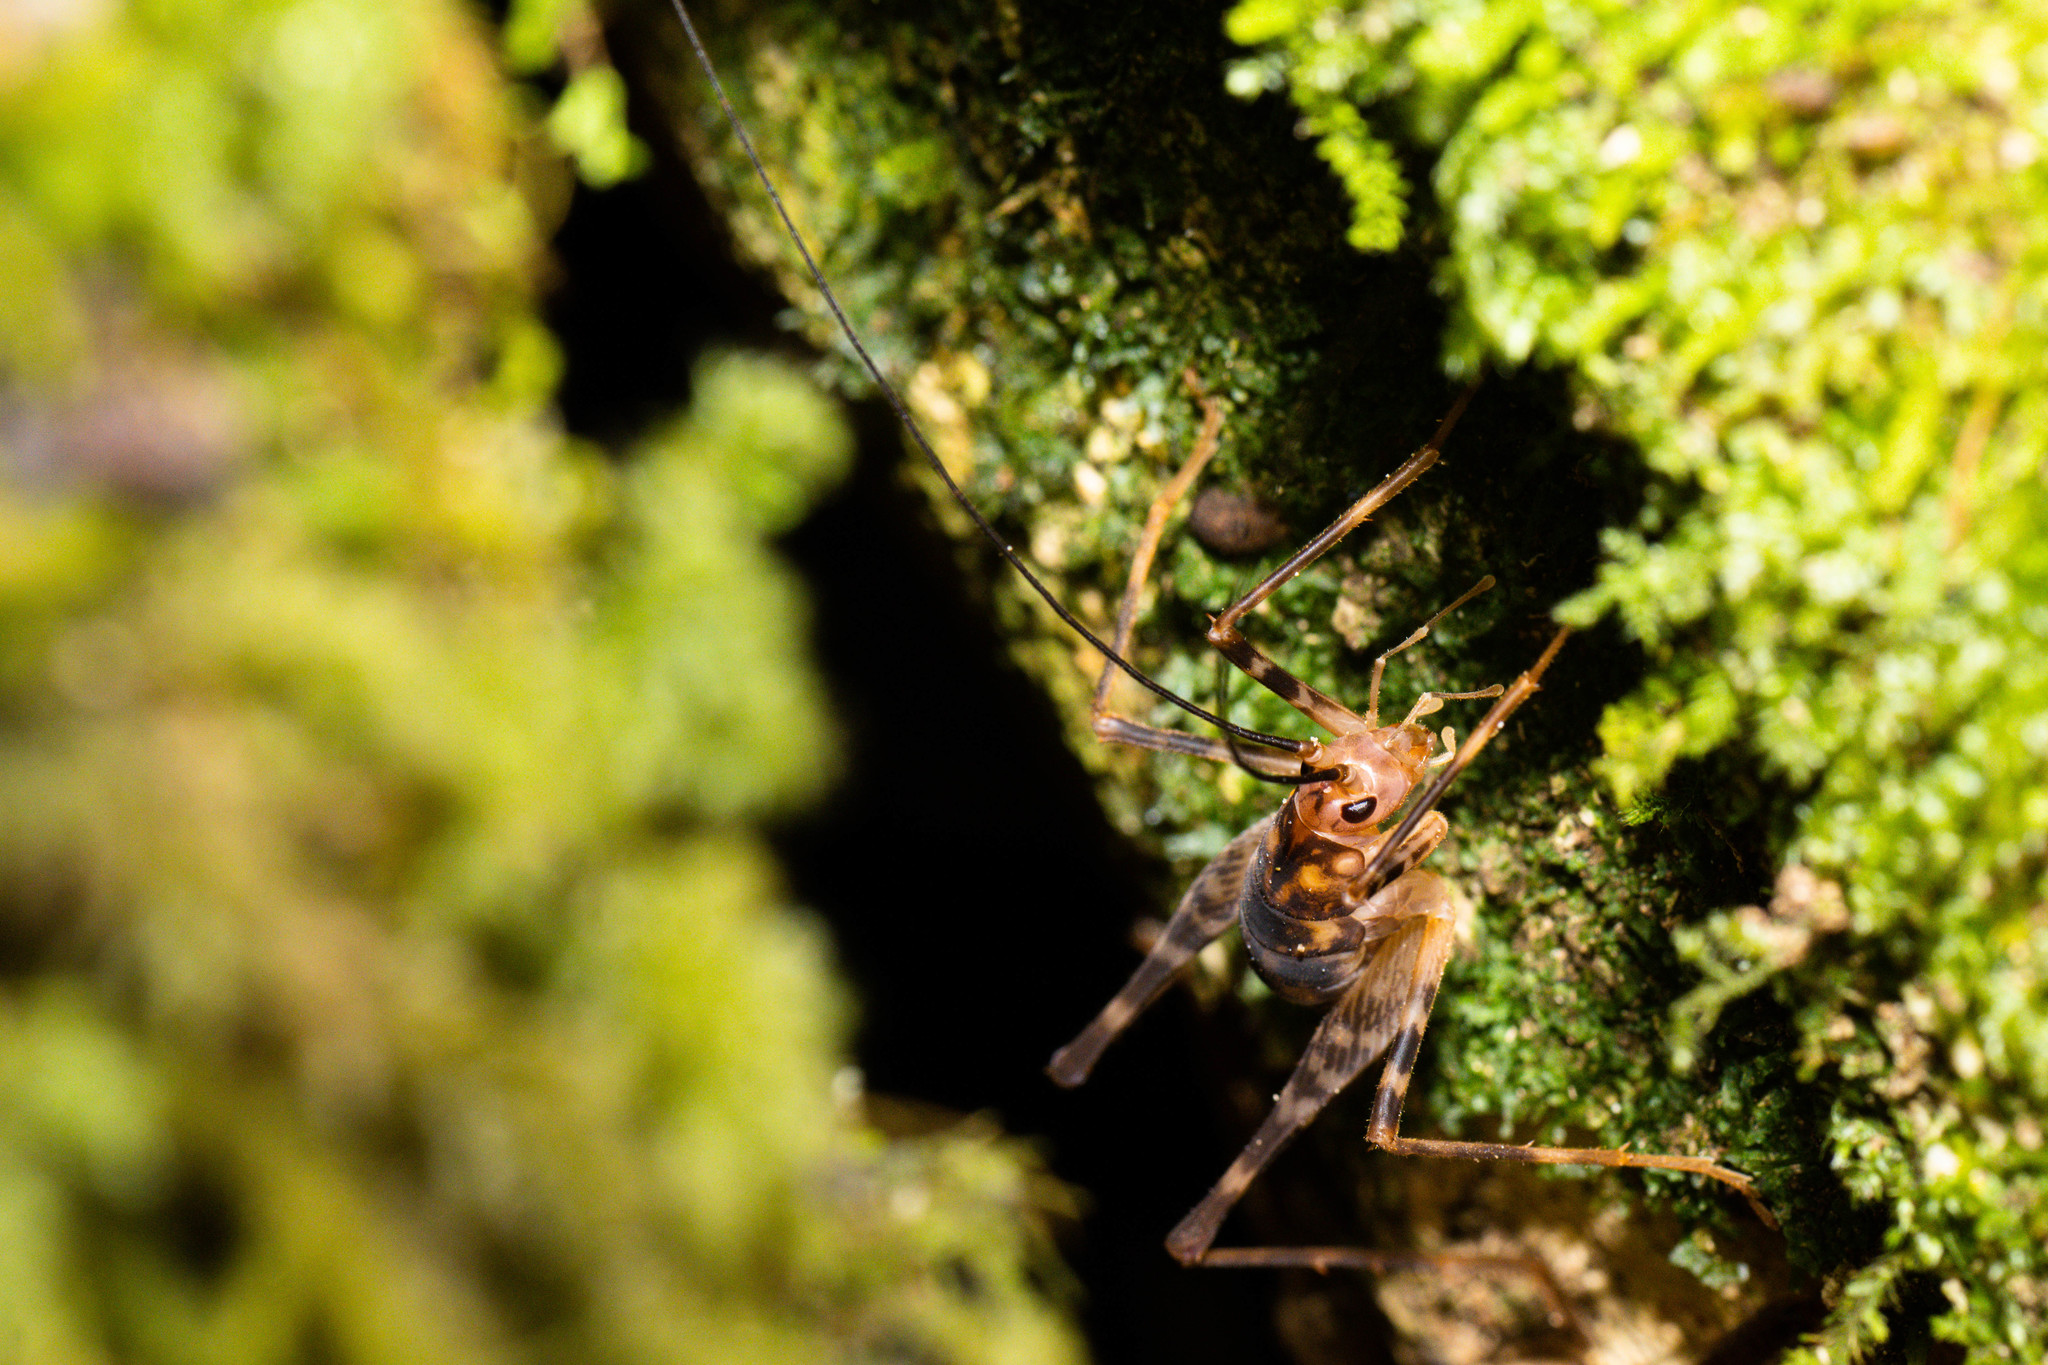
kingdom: Animalia
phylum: Arthropoda
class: Insecta
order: Orthoptera
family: Rhaphidophoridae
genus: Miotopus
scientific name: Miotopus richardsae
